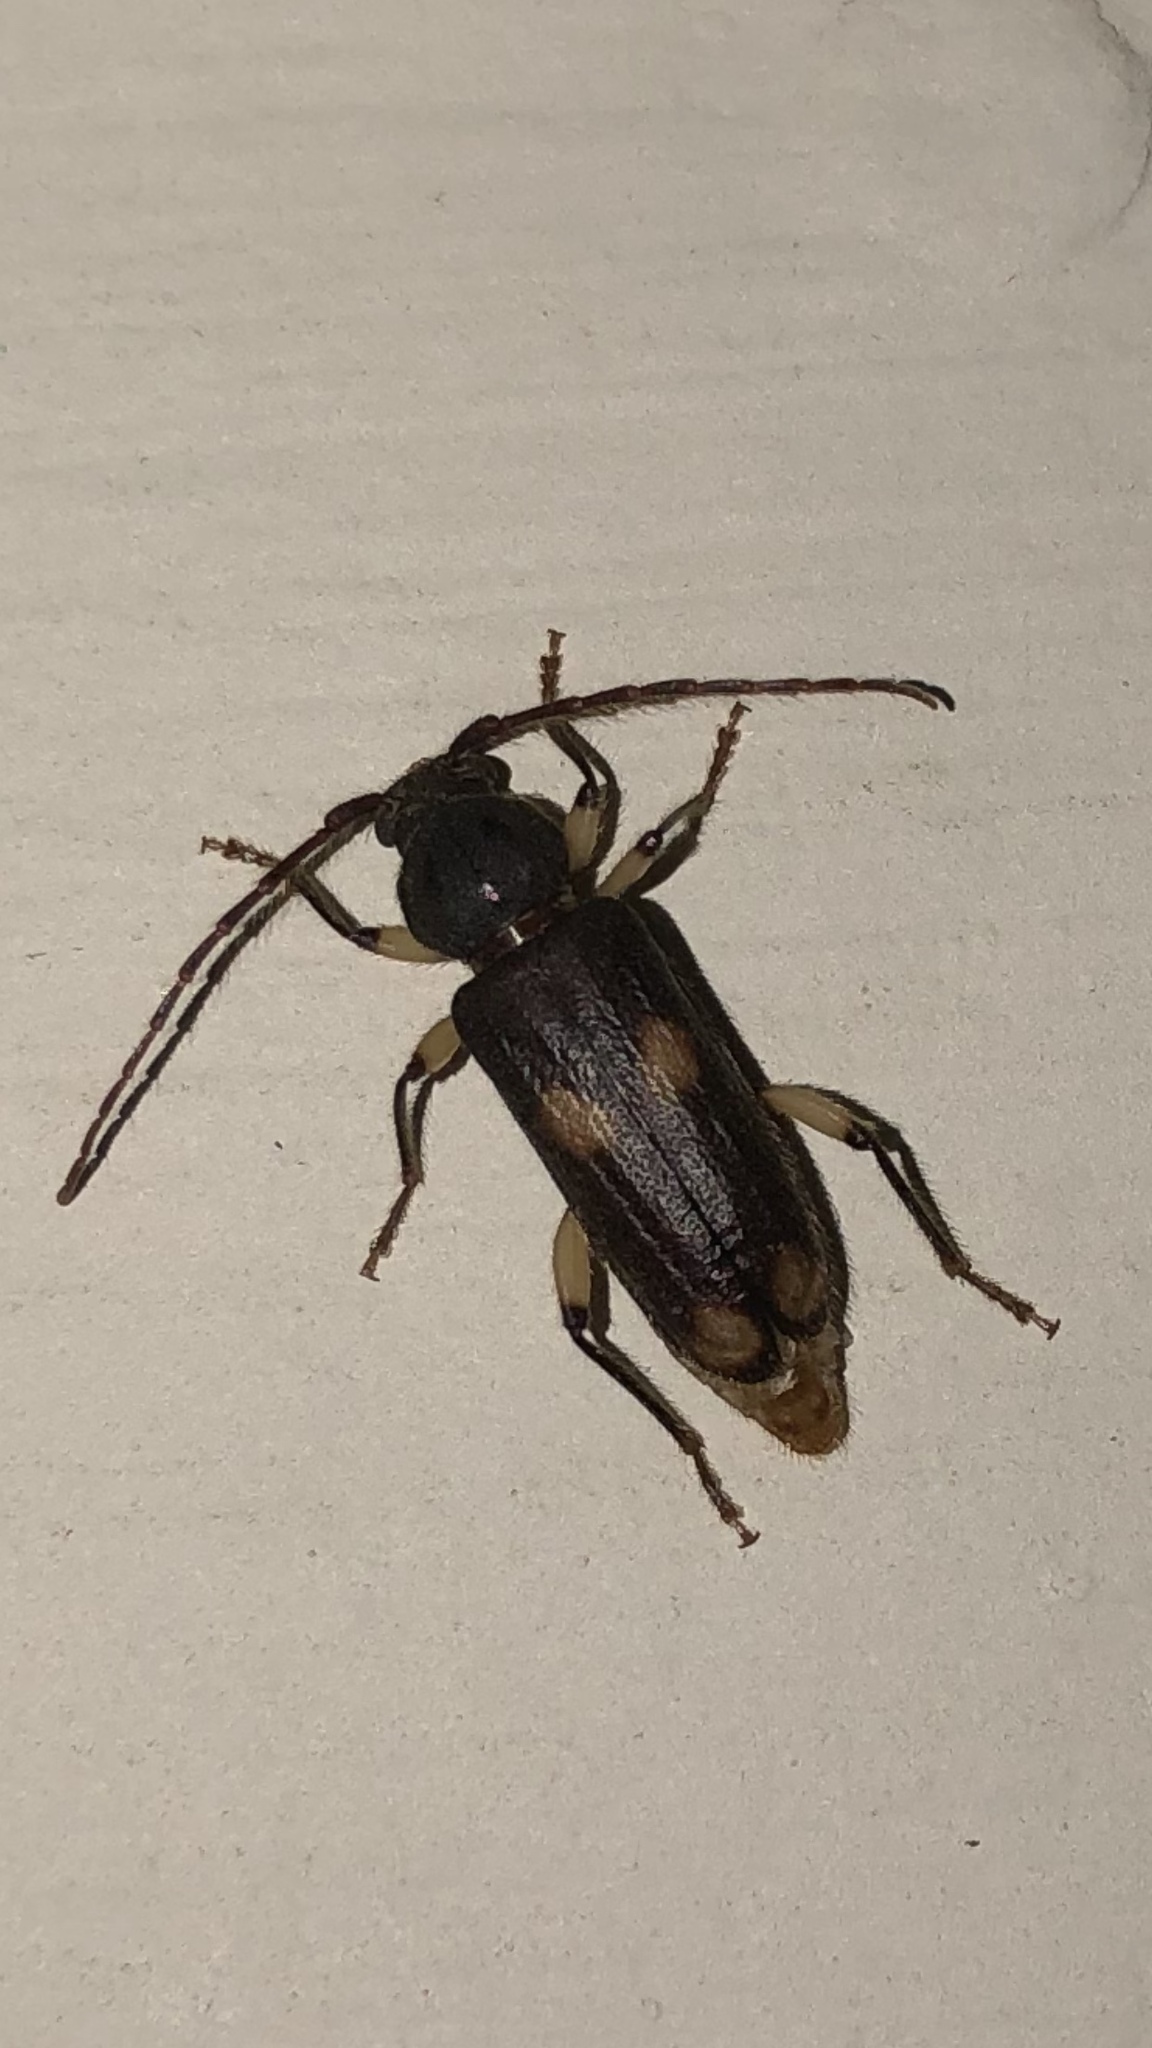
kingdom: Animalia
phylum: Arthropoda
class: Insecta
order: Coleoptera
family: Cerambycidae
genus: Tylonotus
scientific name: Tylonotus bimaculatus
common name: Ash and privet borer
